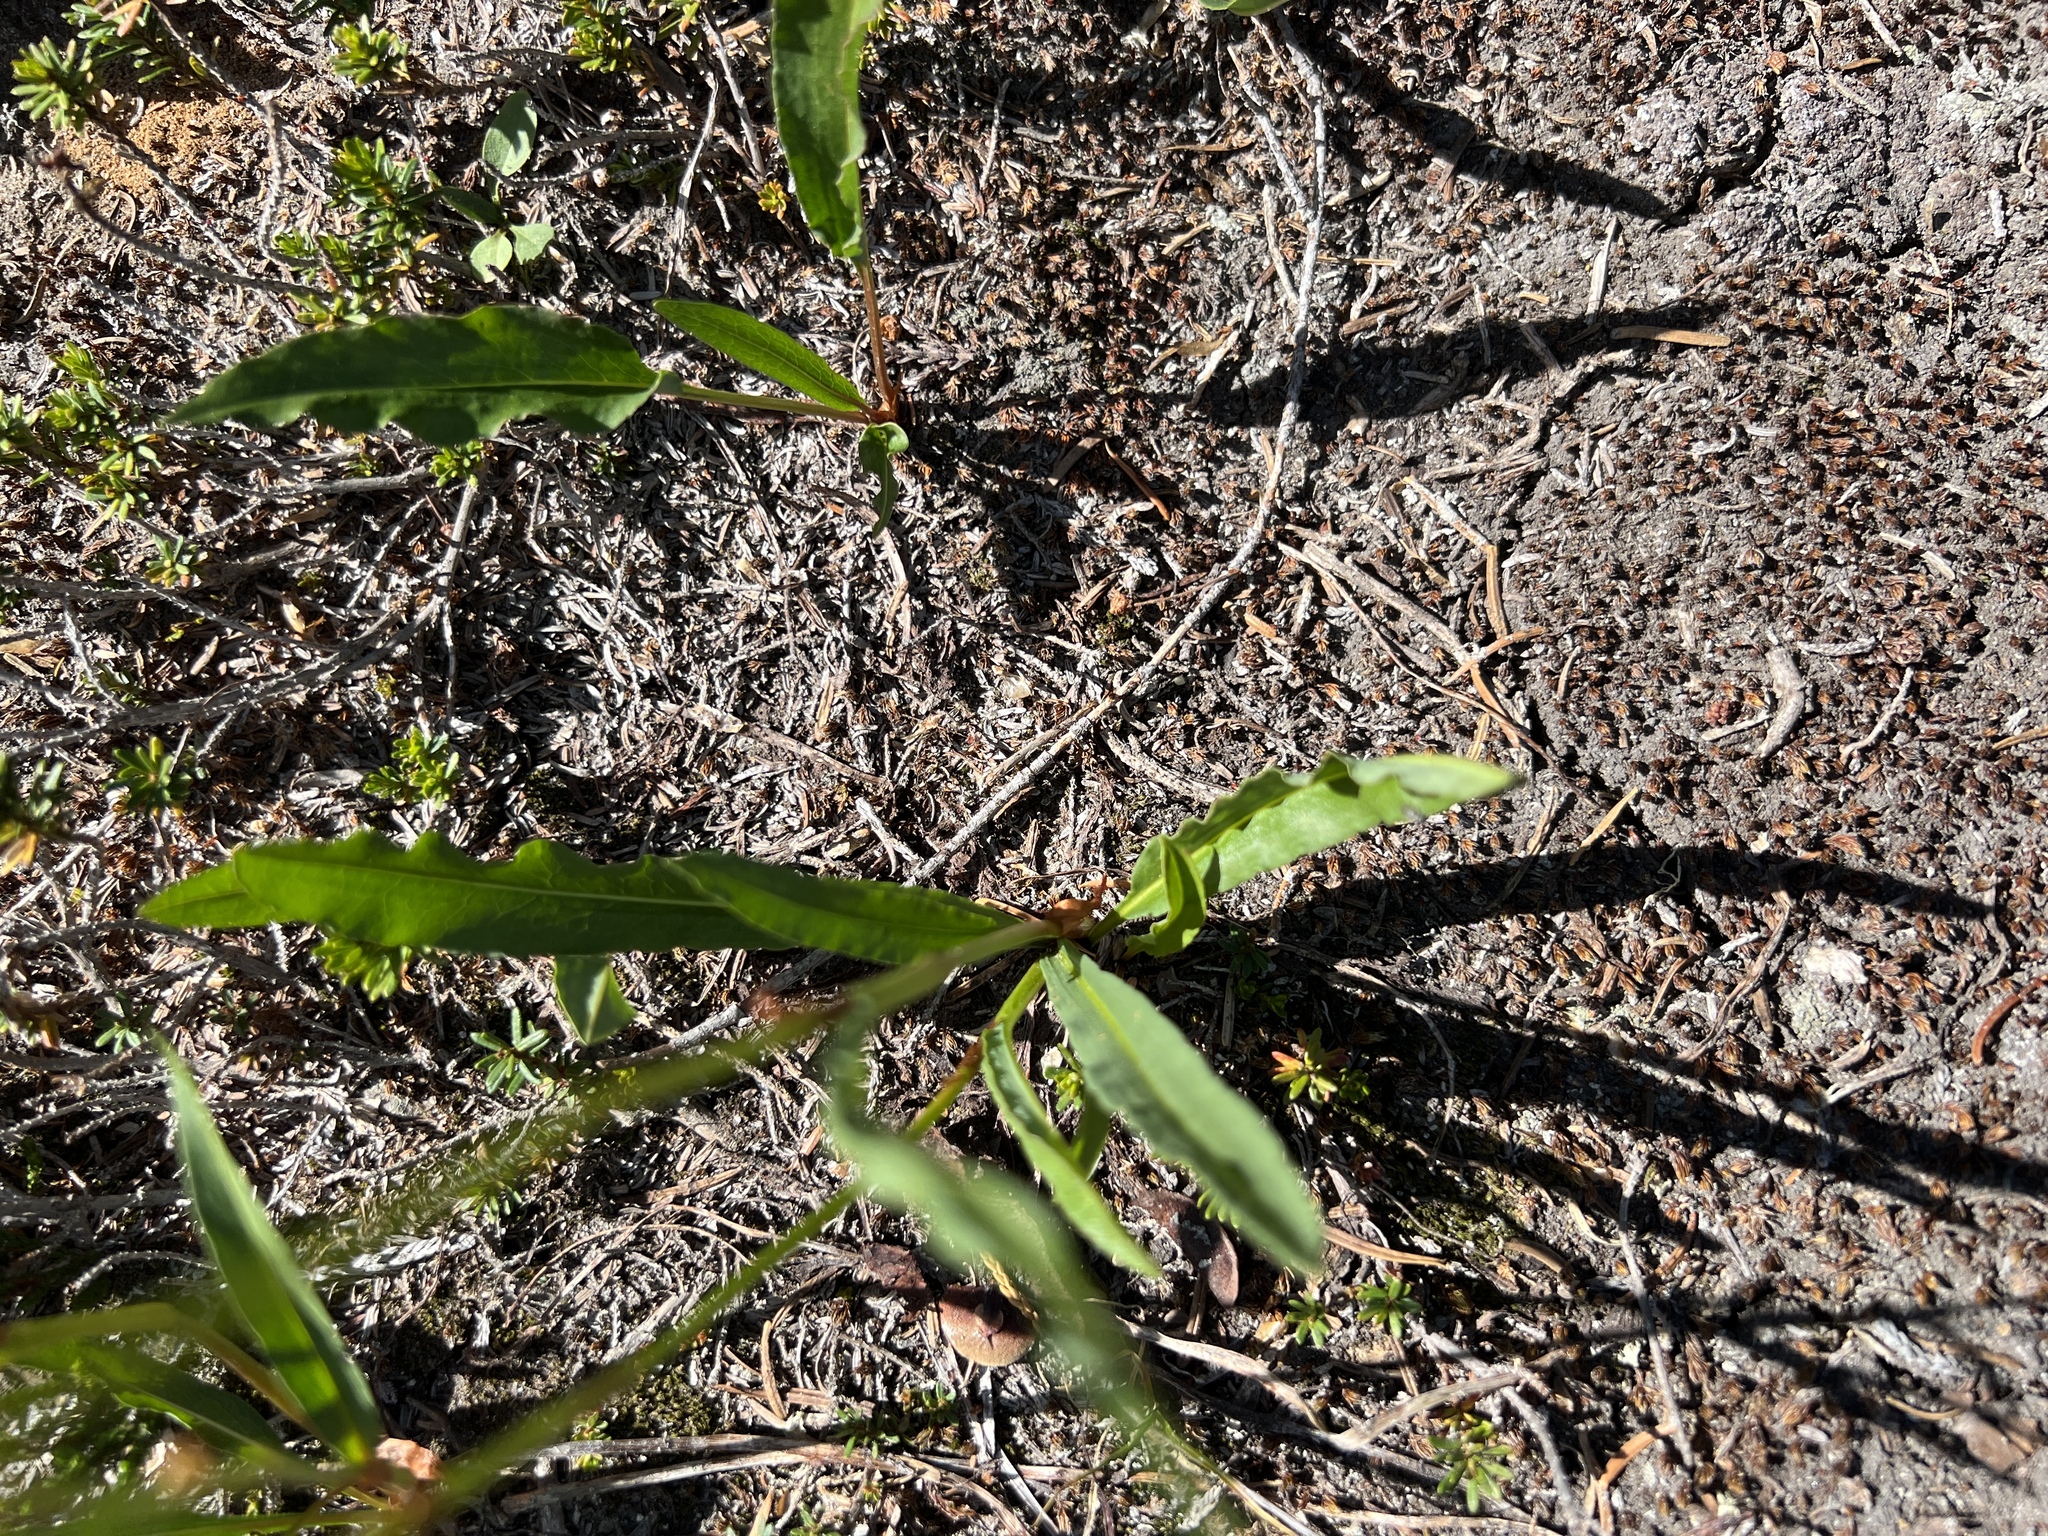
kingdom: Plantae
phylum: Tracheophyta
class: Magnoliopsida
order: Caryophyllales
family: Polygonaceae
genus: Bistorta
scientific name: Bistorta bistortoides
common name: American bistort
